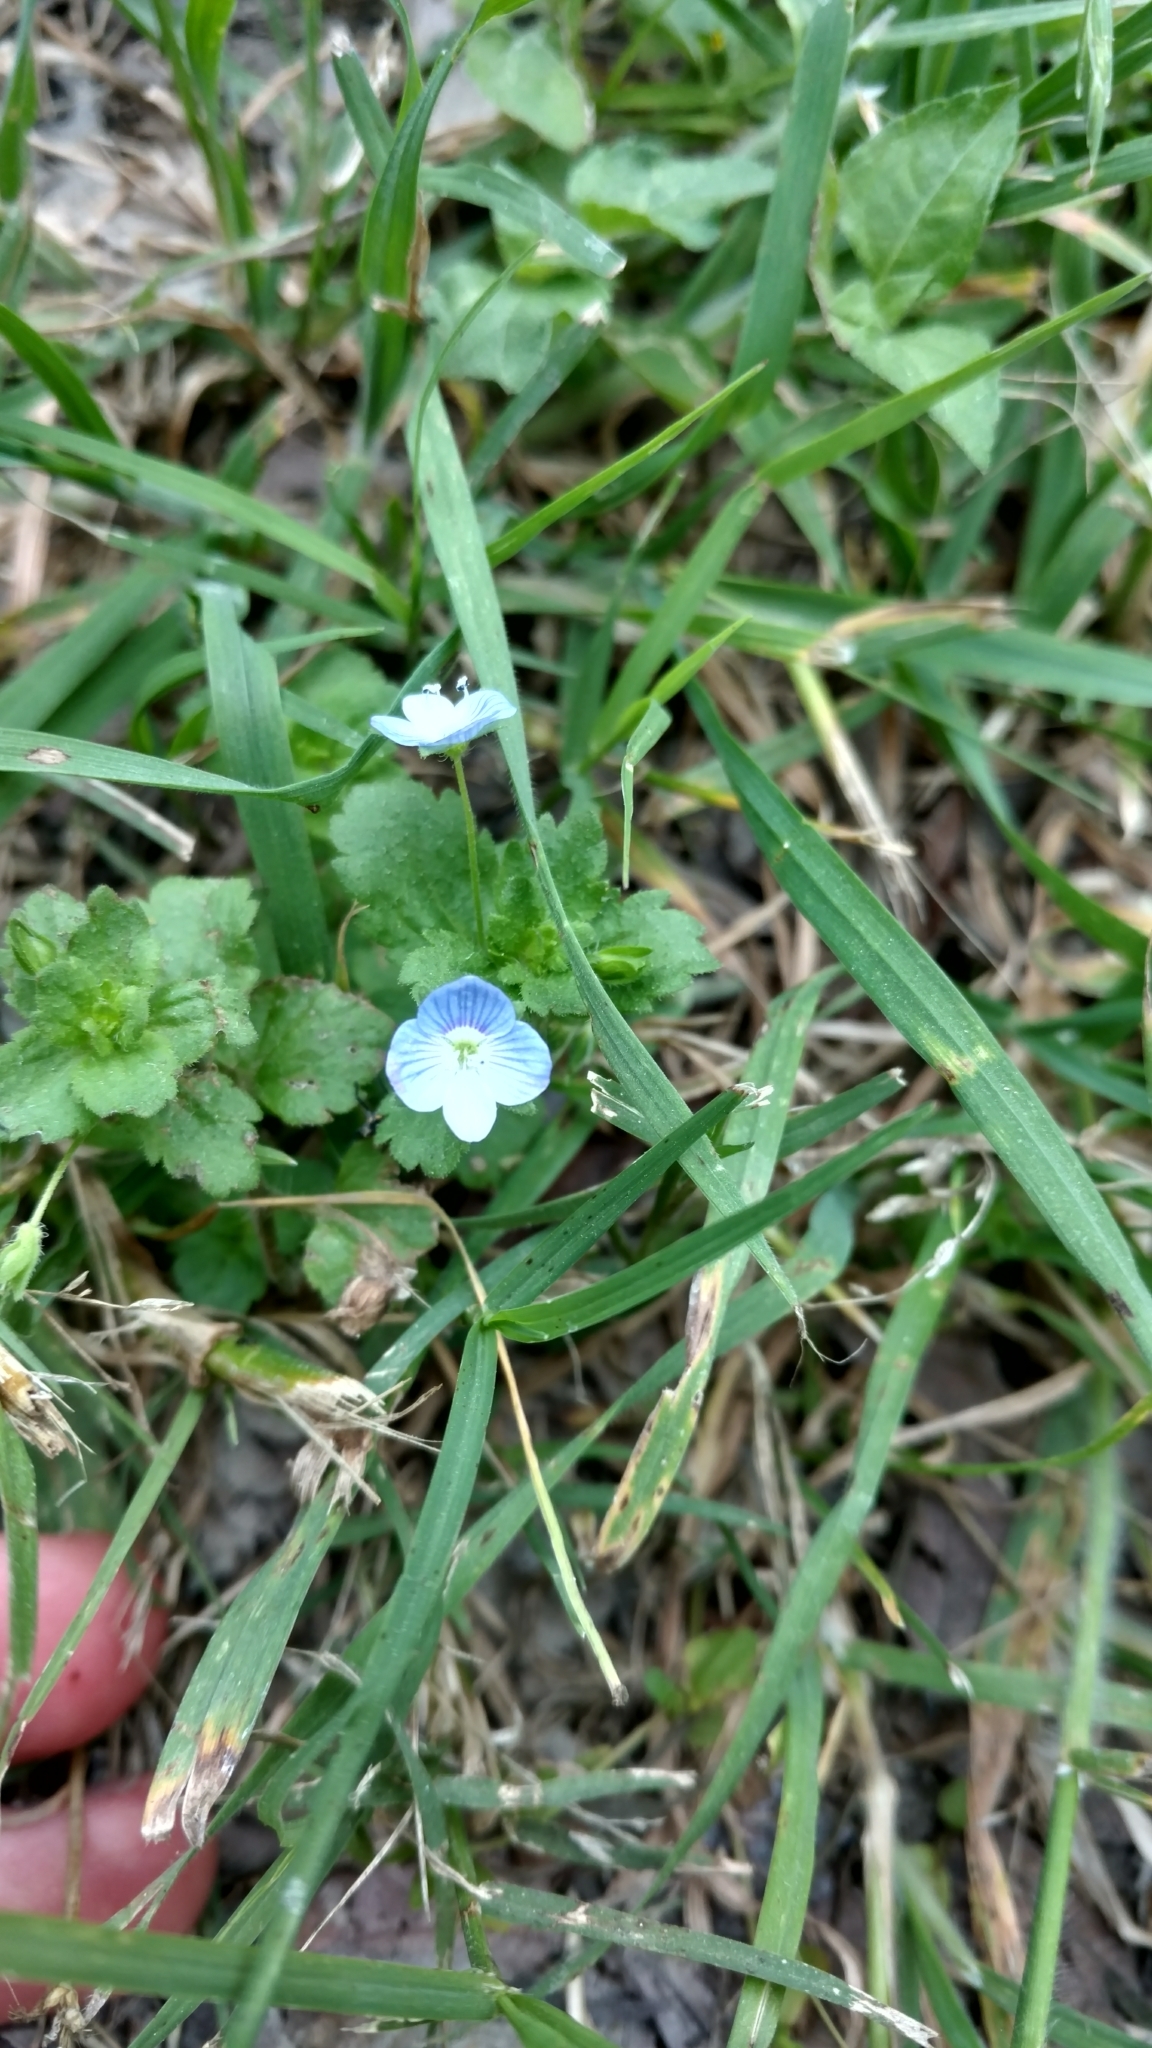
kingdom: Plantae
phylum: Tracheophyta
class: Magnoliopsida
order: Lamiales
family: Plantaginaceae
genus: Veronica
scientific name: Veronica persica
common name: Common field-speedwell
